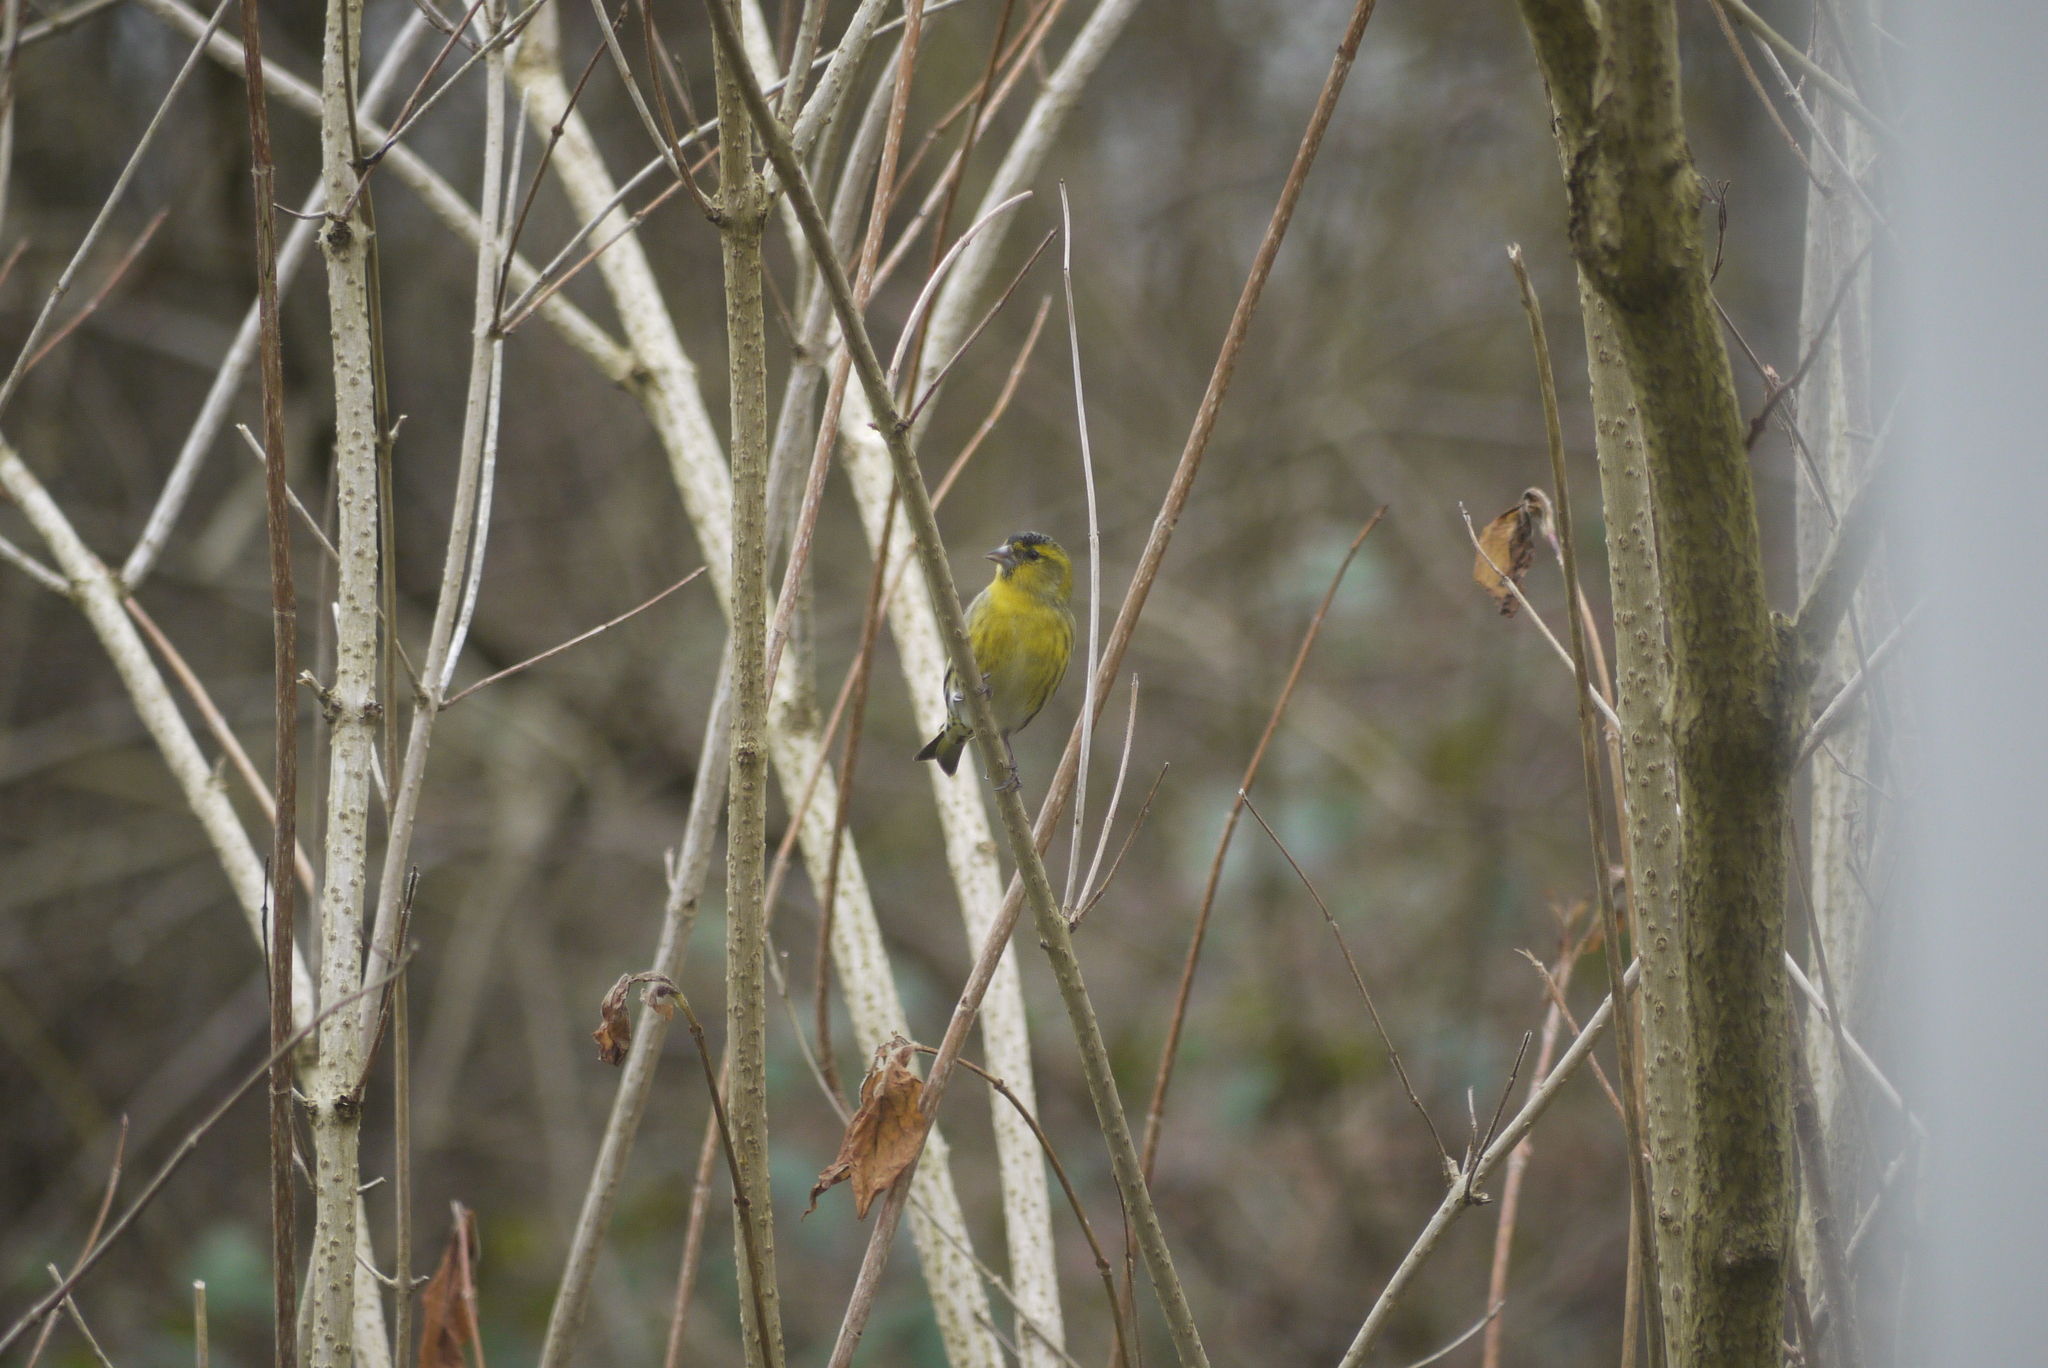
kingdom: Animalia
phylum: Chordata
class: Aves
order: Passeriformes
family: Fringillidae
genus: Spinus
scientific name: Spinus spinus
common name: Eurasian siskin
